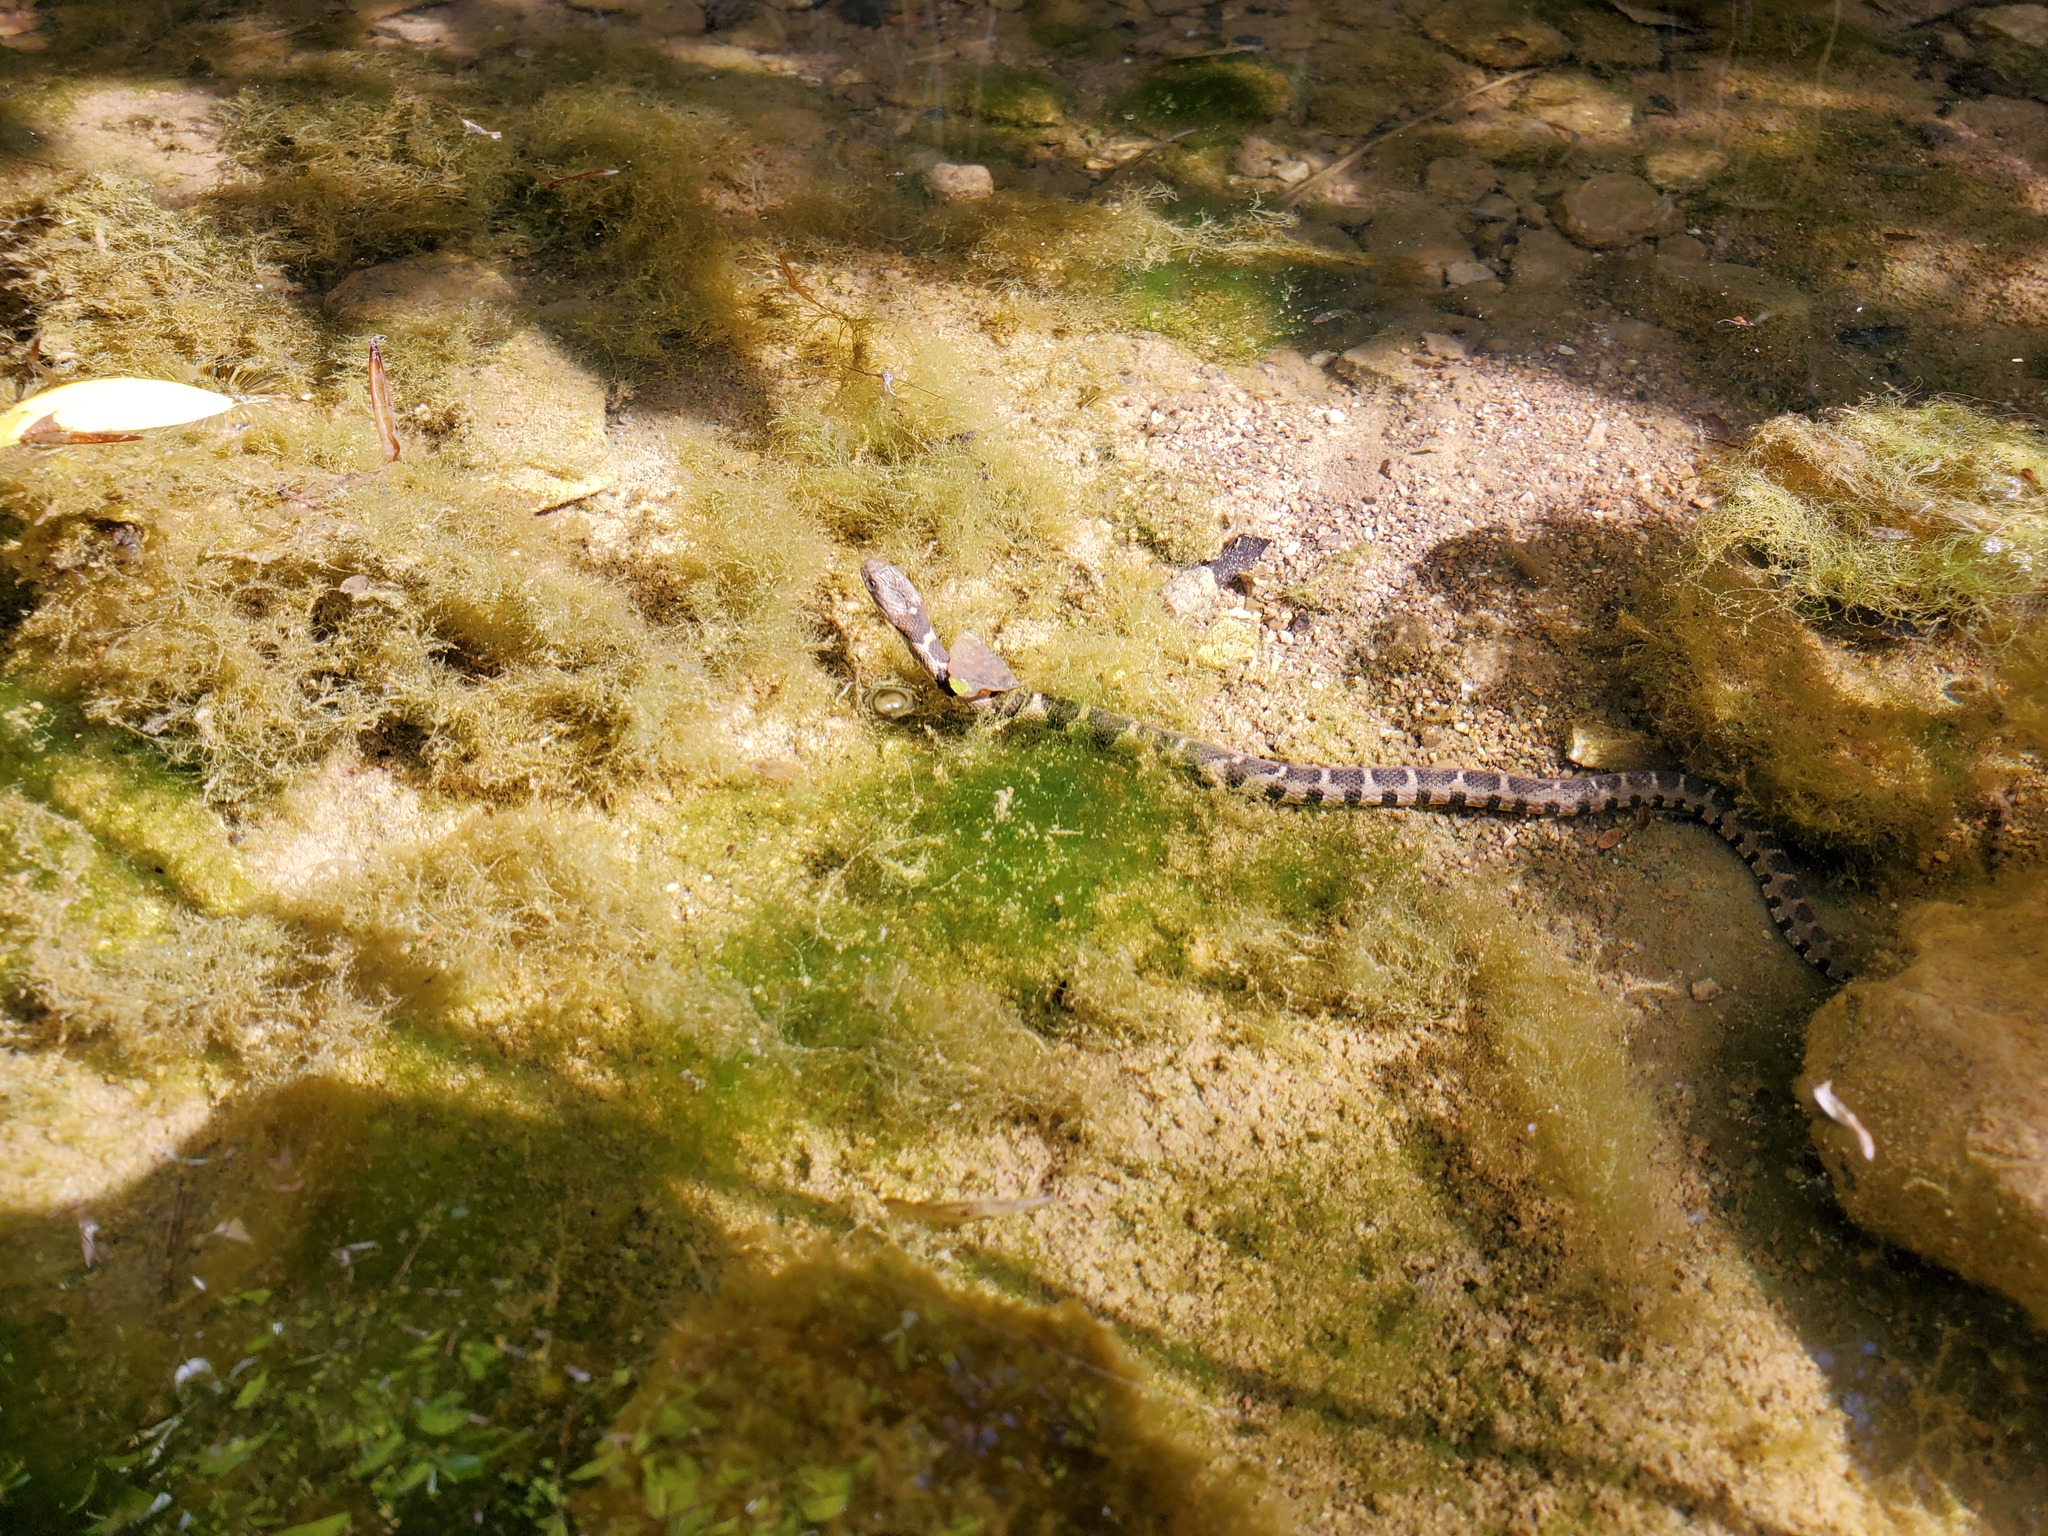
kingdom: Animalia
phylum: Chordata
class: Squamata
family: Colubridae
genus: Nerodia
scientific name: Nerodia sipedon
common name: Northern water snake
